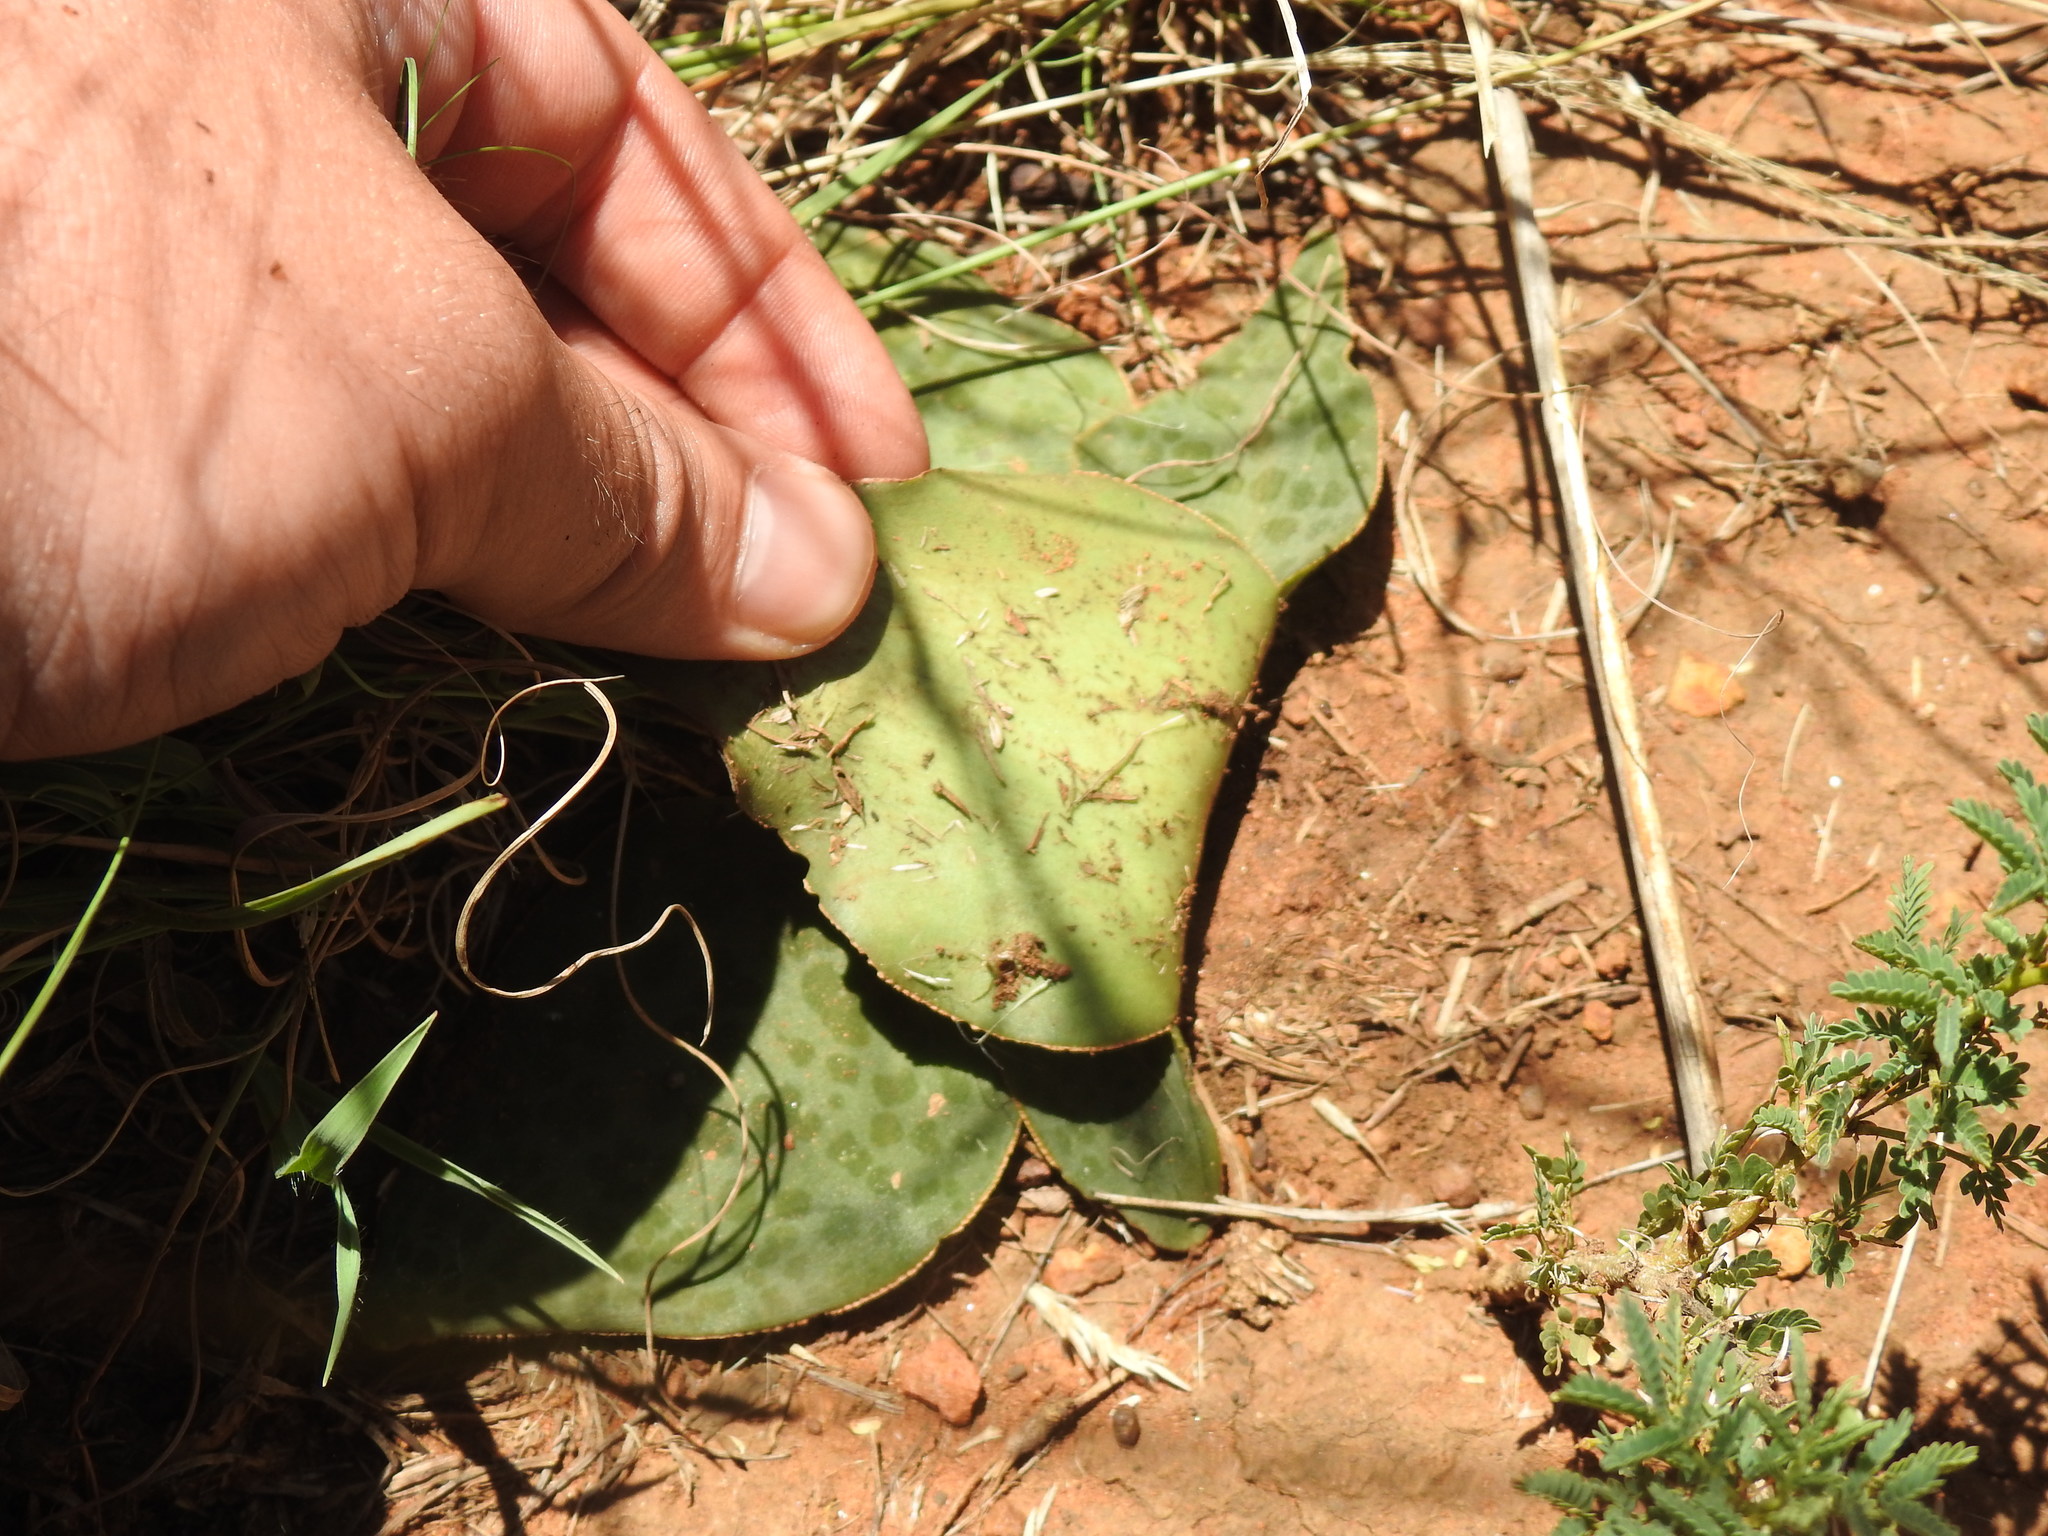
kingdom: Plantae
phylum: Tracheophyta
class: Liliopsida
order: Asparagales
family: Asparagaceae
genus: Ledebouria
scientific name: Ledebouria ovatifolia
